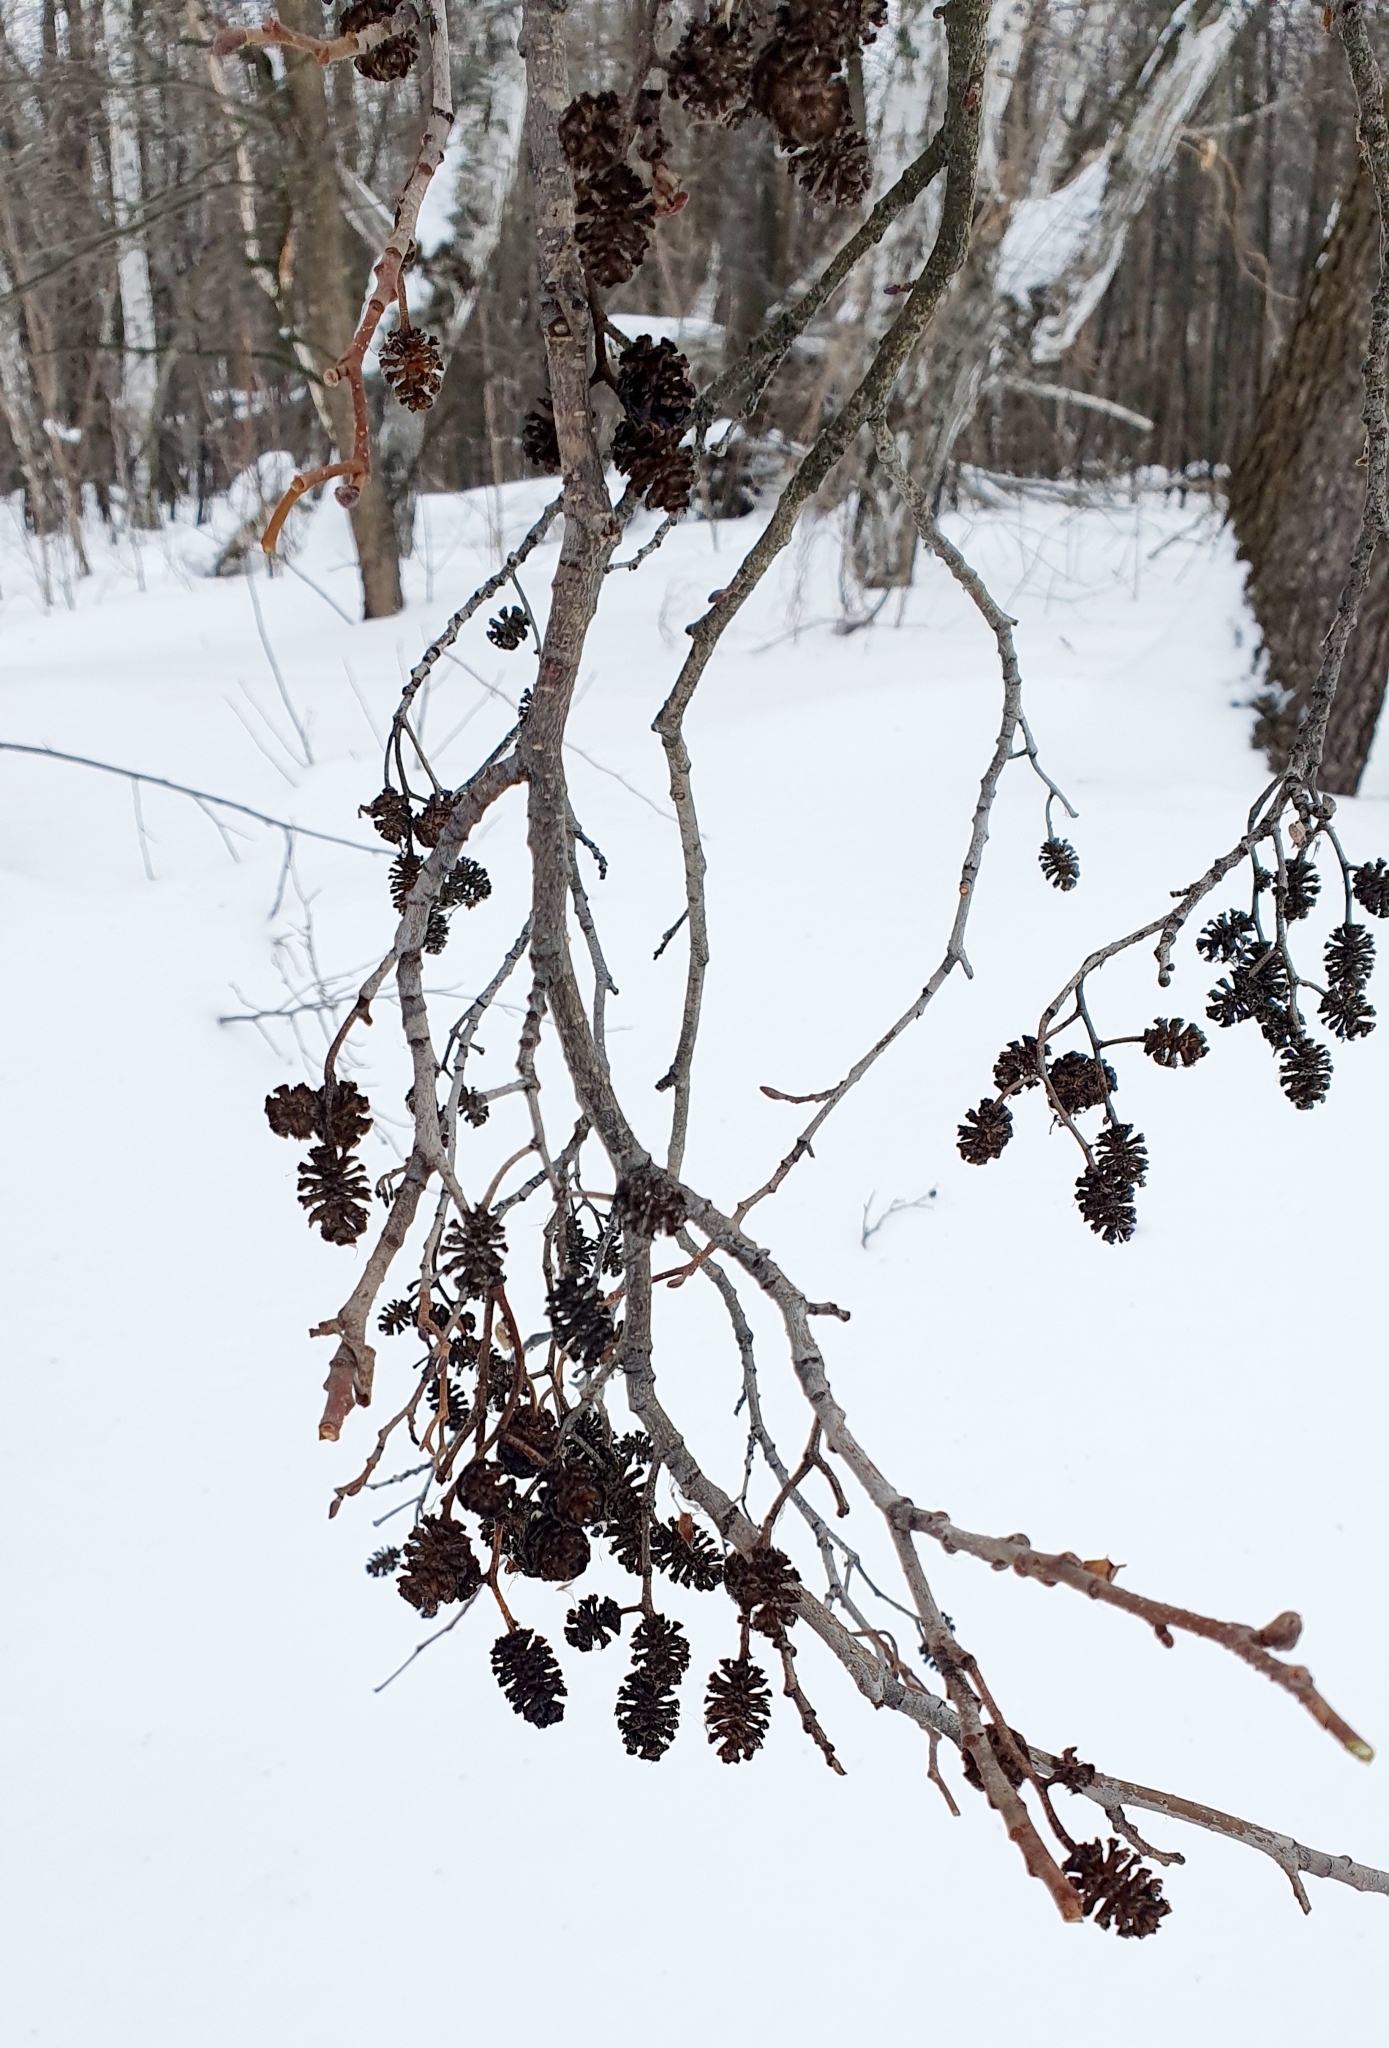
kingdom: Plantae
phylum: Tracheophyta
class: Magnoliopsida
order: Fagales
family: Betulaceae
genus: Alnus
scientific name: Alnus glutinosa
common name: Black alder
